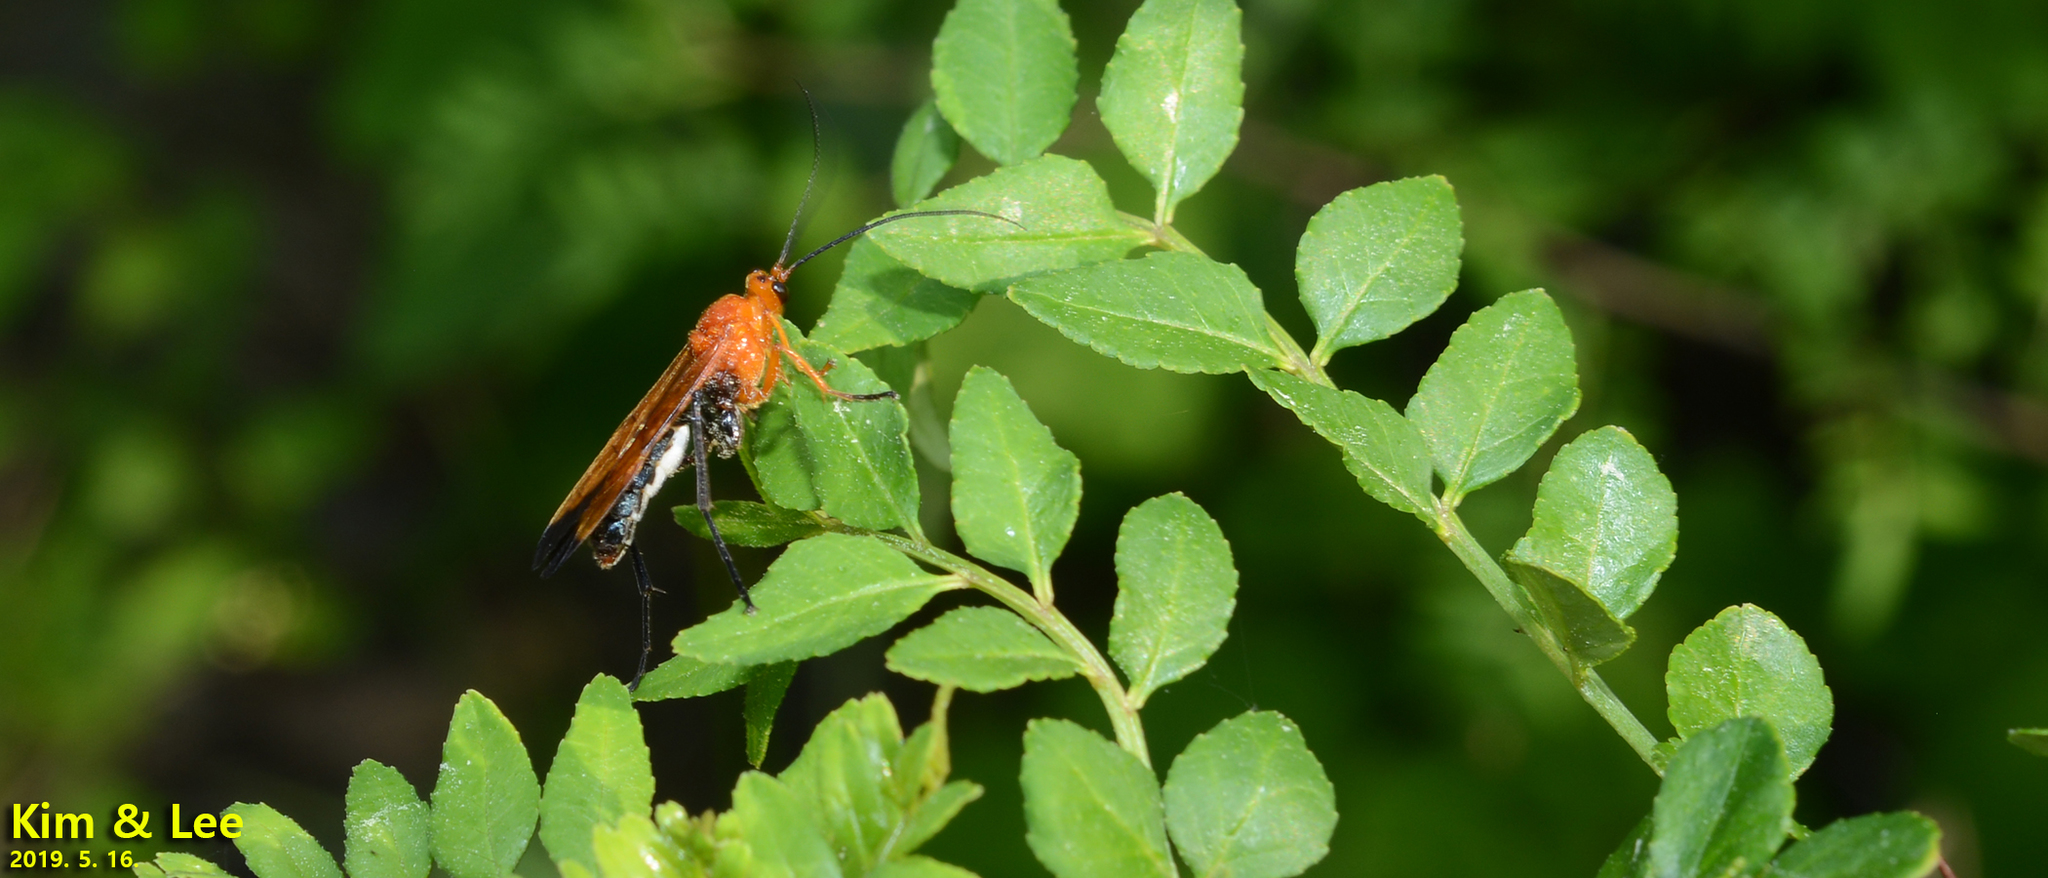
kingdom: Animalia
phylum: Arthropoda
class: Insecta
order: Hymenoptera
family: Ichneumonidae
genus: Holcojoppa
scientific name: Holcojoppa bicolor
